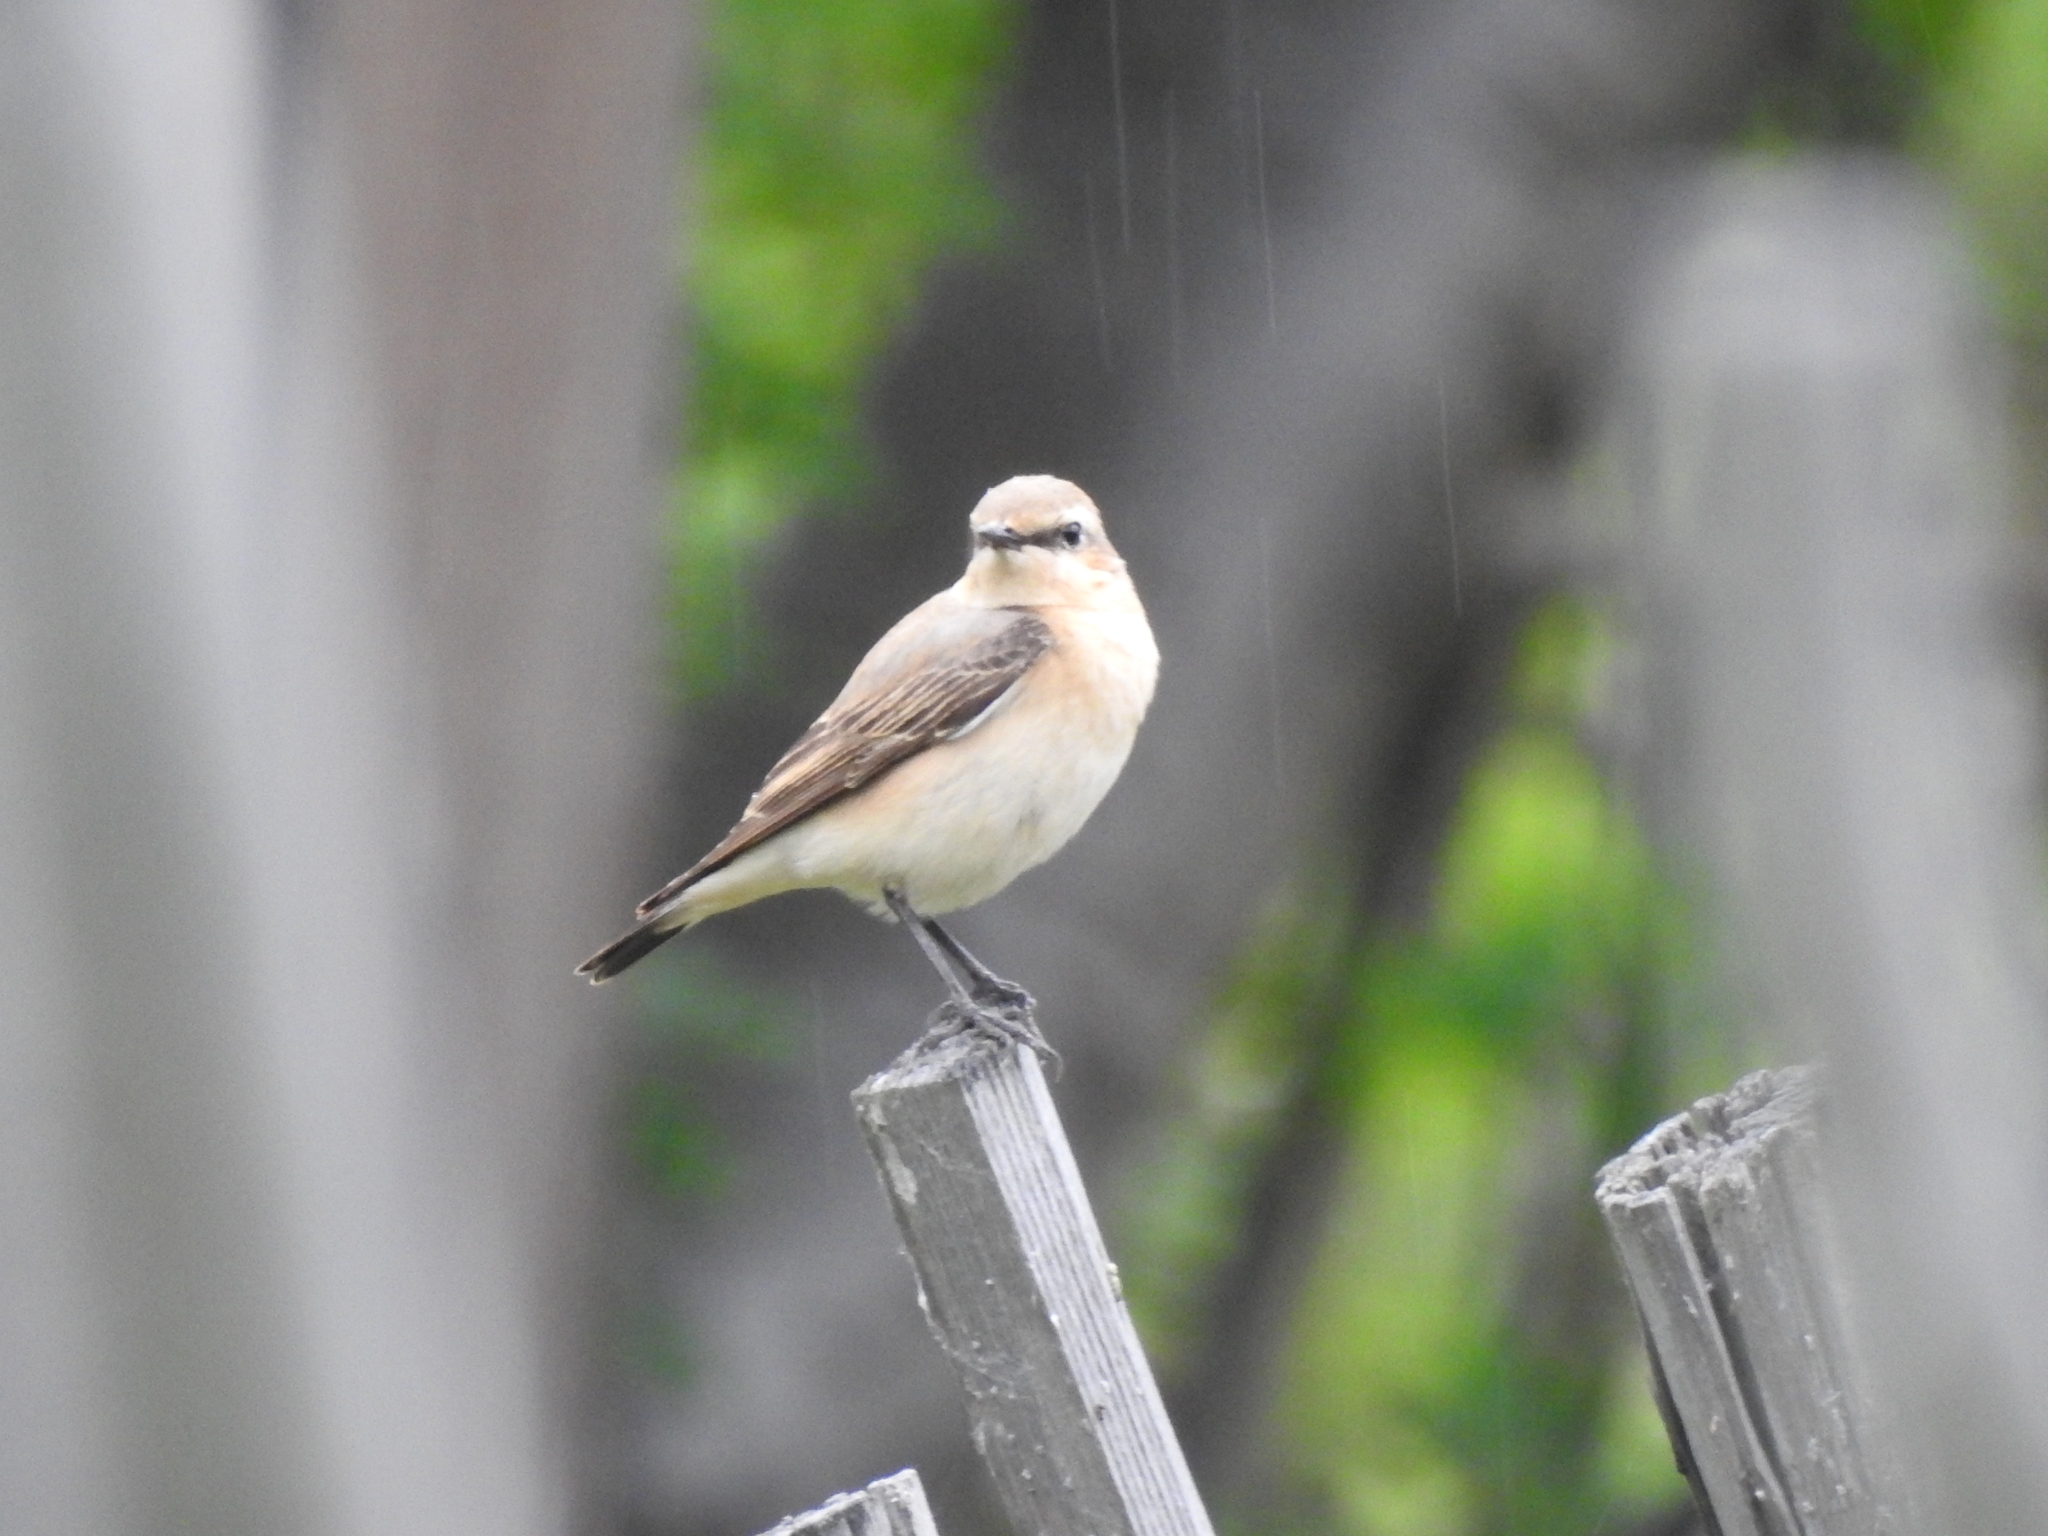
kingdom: Animalia
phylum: Chordata
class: Aves
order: Passeriformes
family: Muscicapidae
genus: Oenanthe
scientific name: Oenanthe oenanthe
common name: Northern wheatear
